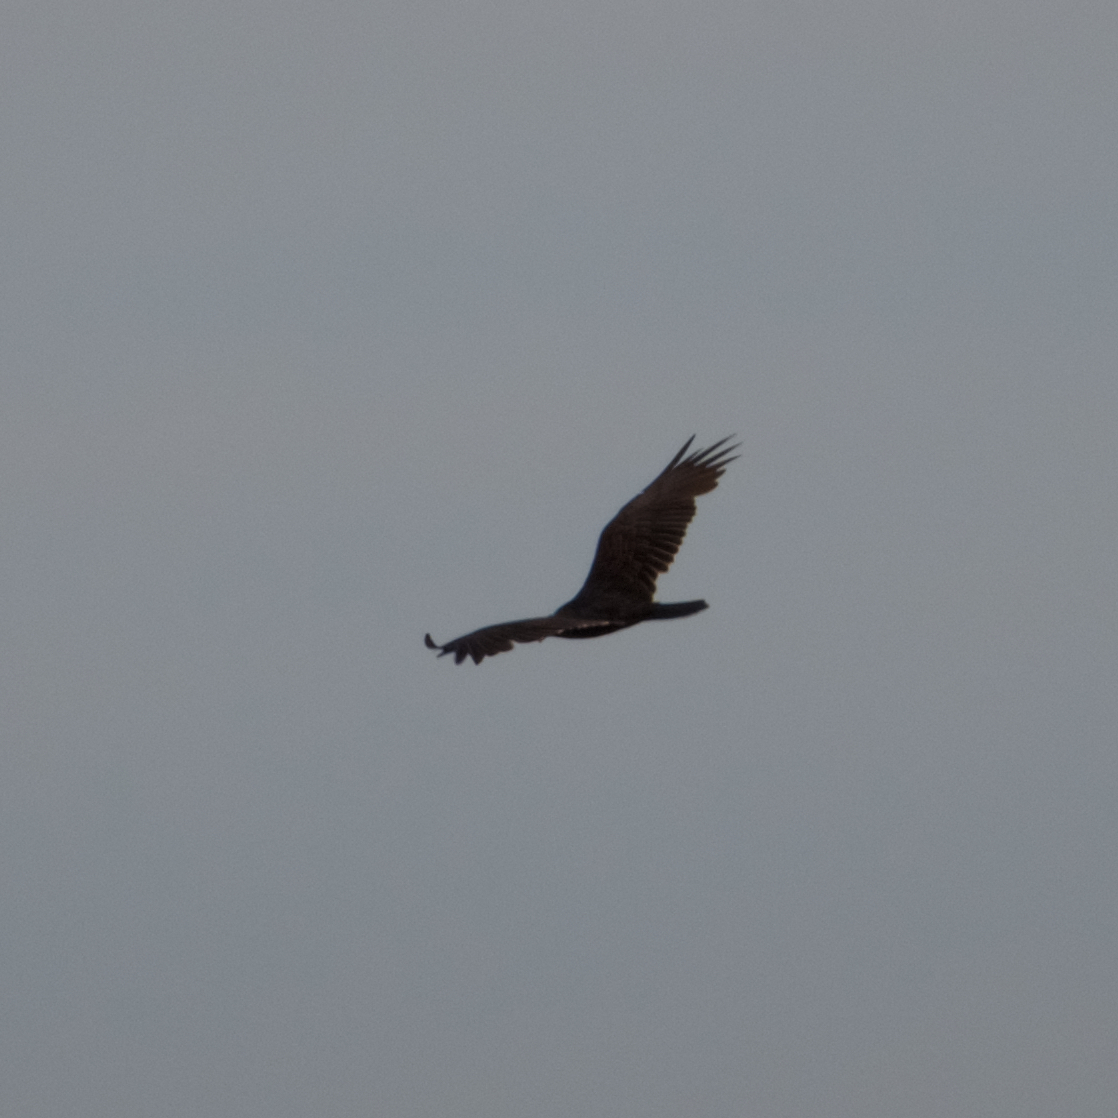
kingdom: Animalia
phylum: Chordata
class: Aves
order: Accipitriformes
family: Cathartidae
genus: Cathartes
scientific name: Cathartes aura
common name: Turkey vulture
